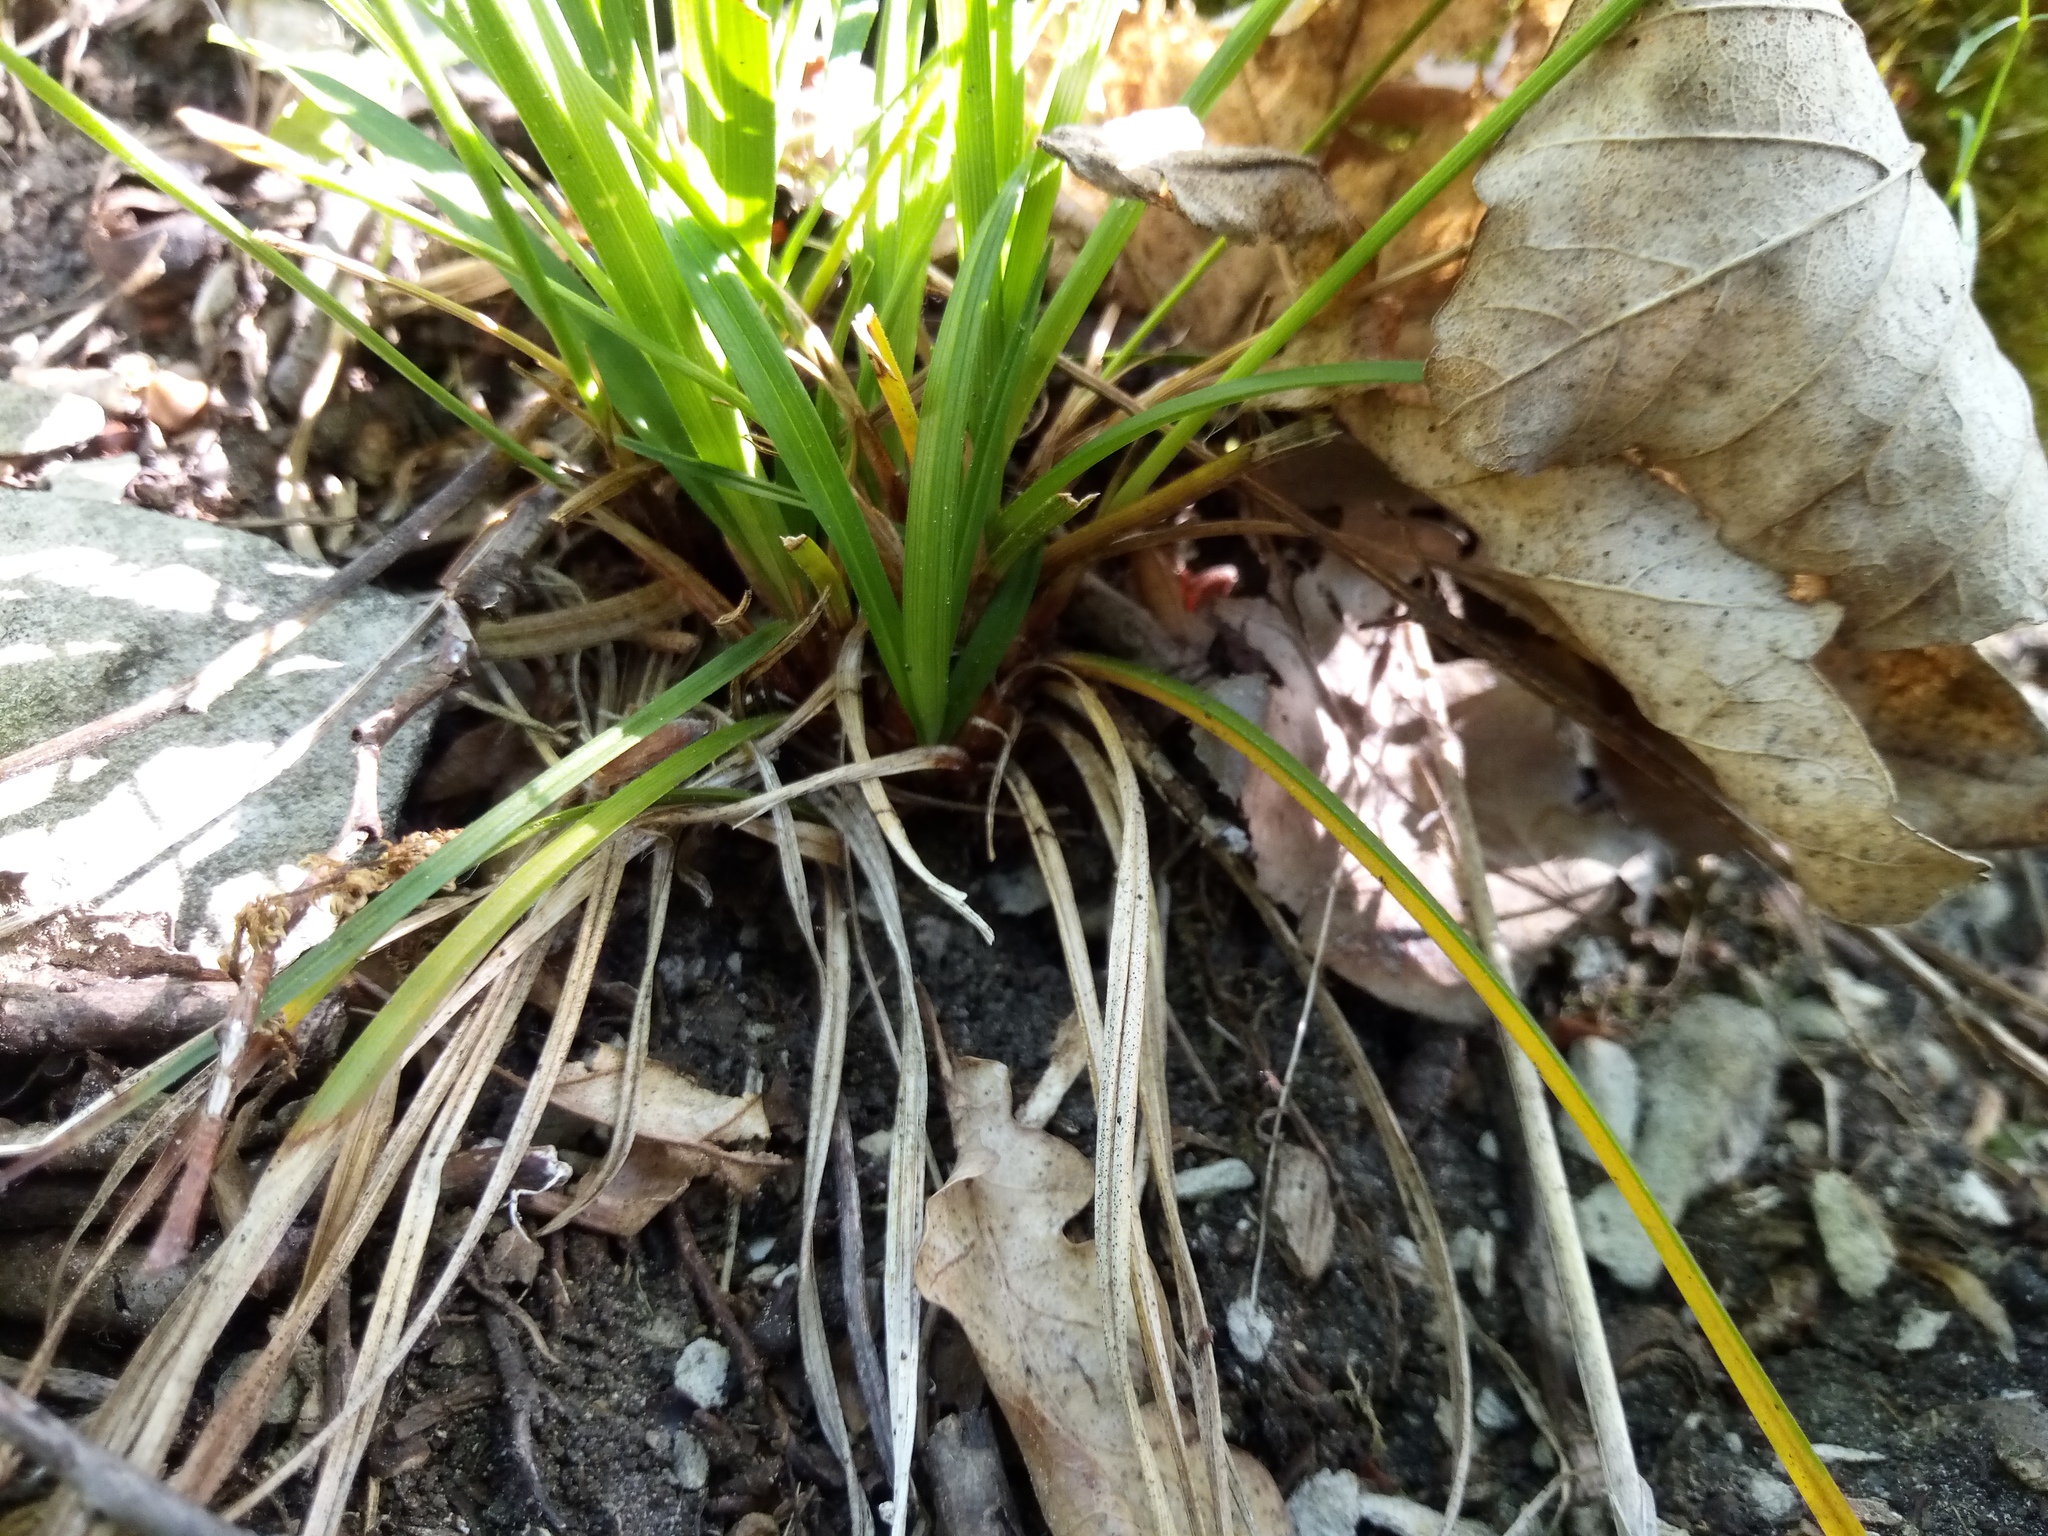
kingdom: Plantae
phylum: Tracheophyta
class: Liliopsida
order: Poales
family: Cyperaceae
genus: Carex
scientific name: Carex digitata
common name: Fingered sedge
